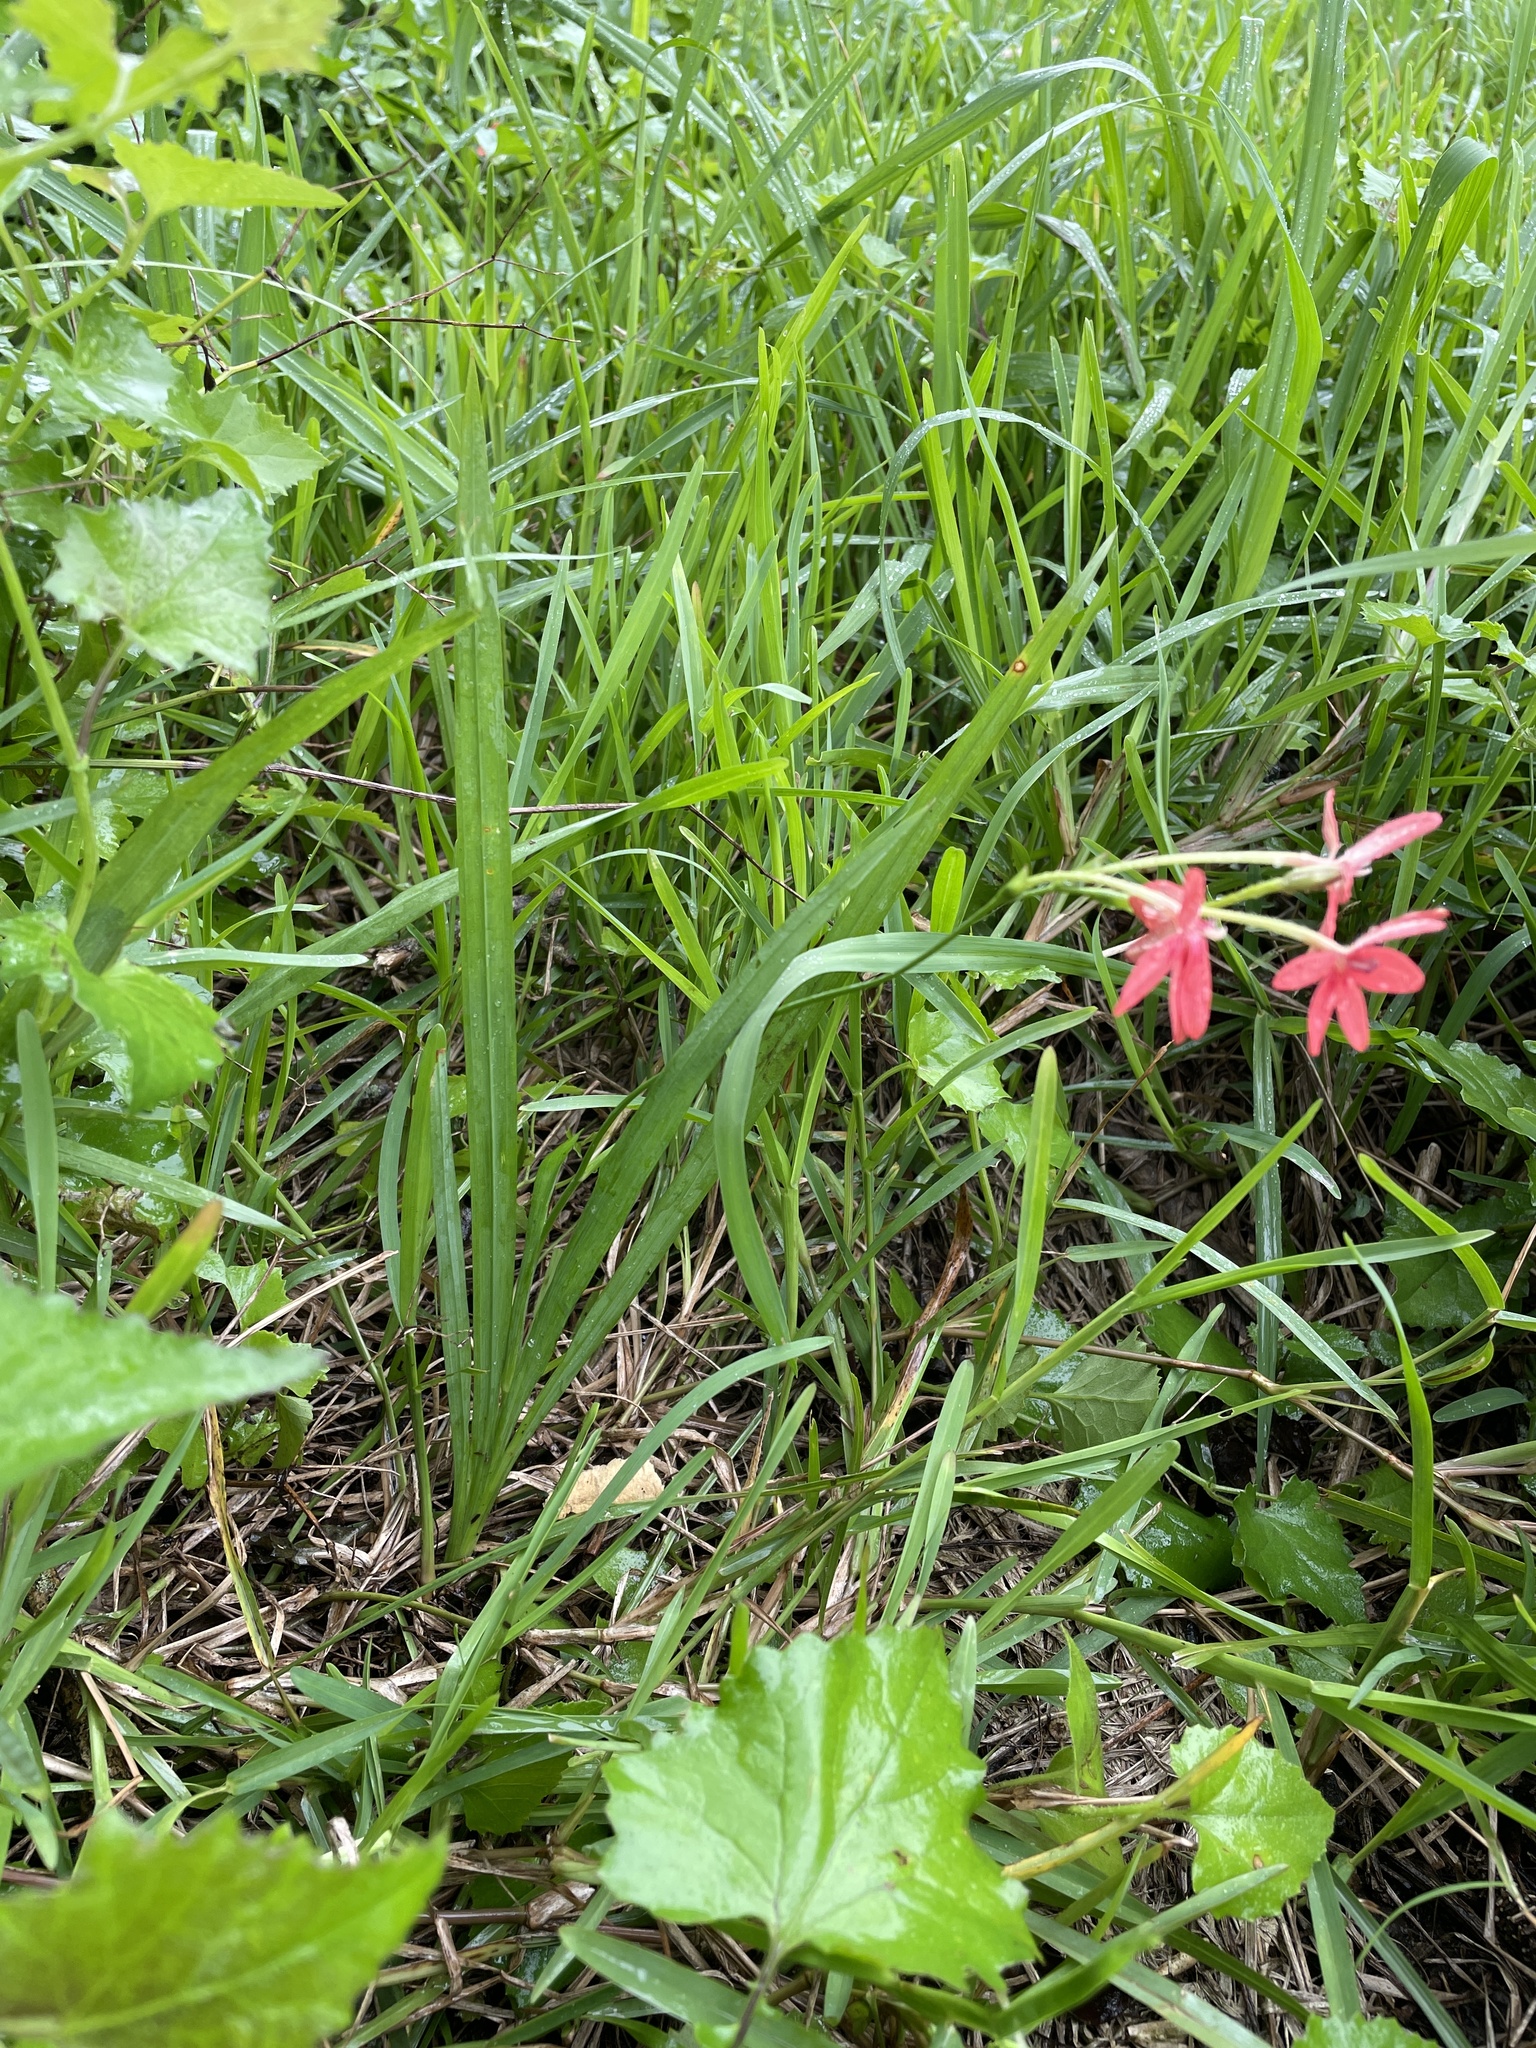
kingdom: Plantae
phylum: Tracheophyta
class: Liliopsida
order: Asparagales
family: Iridaceae
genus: Freesia
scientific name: Freesia laxa
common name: False freesia
